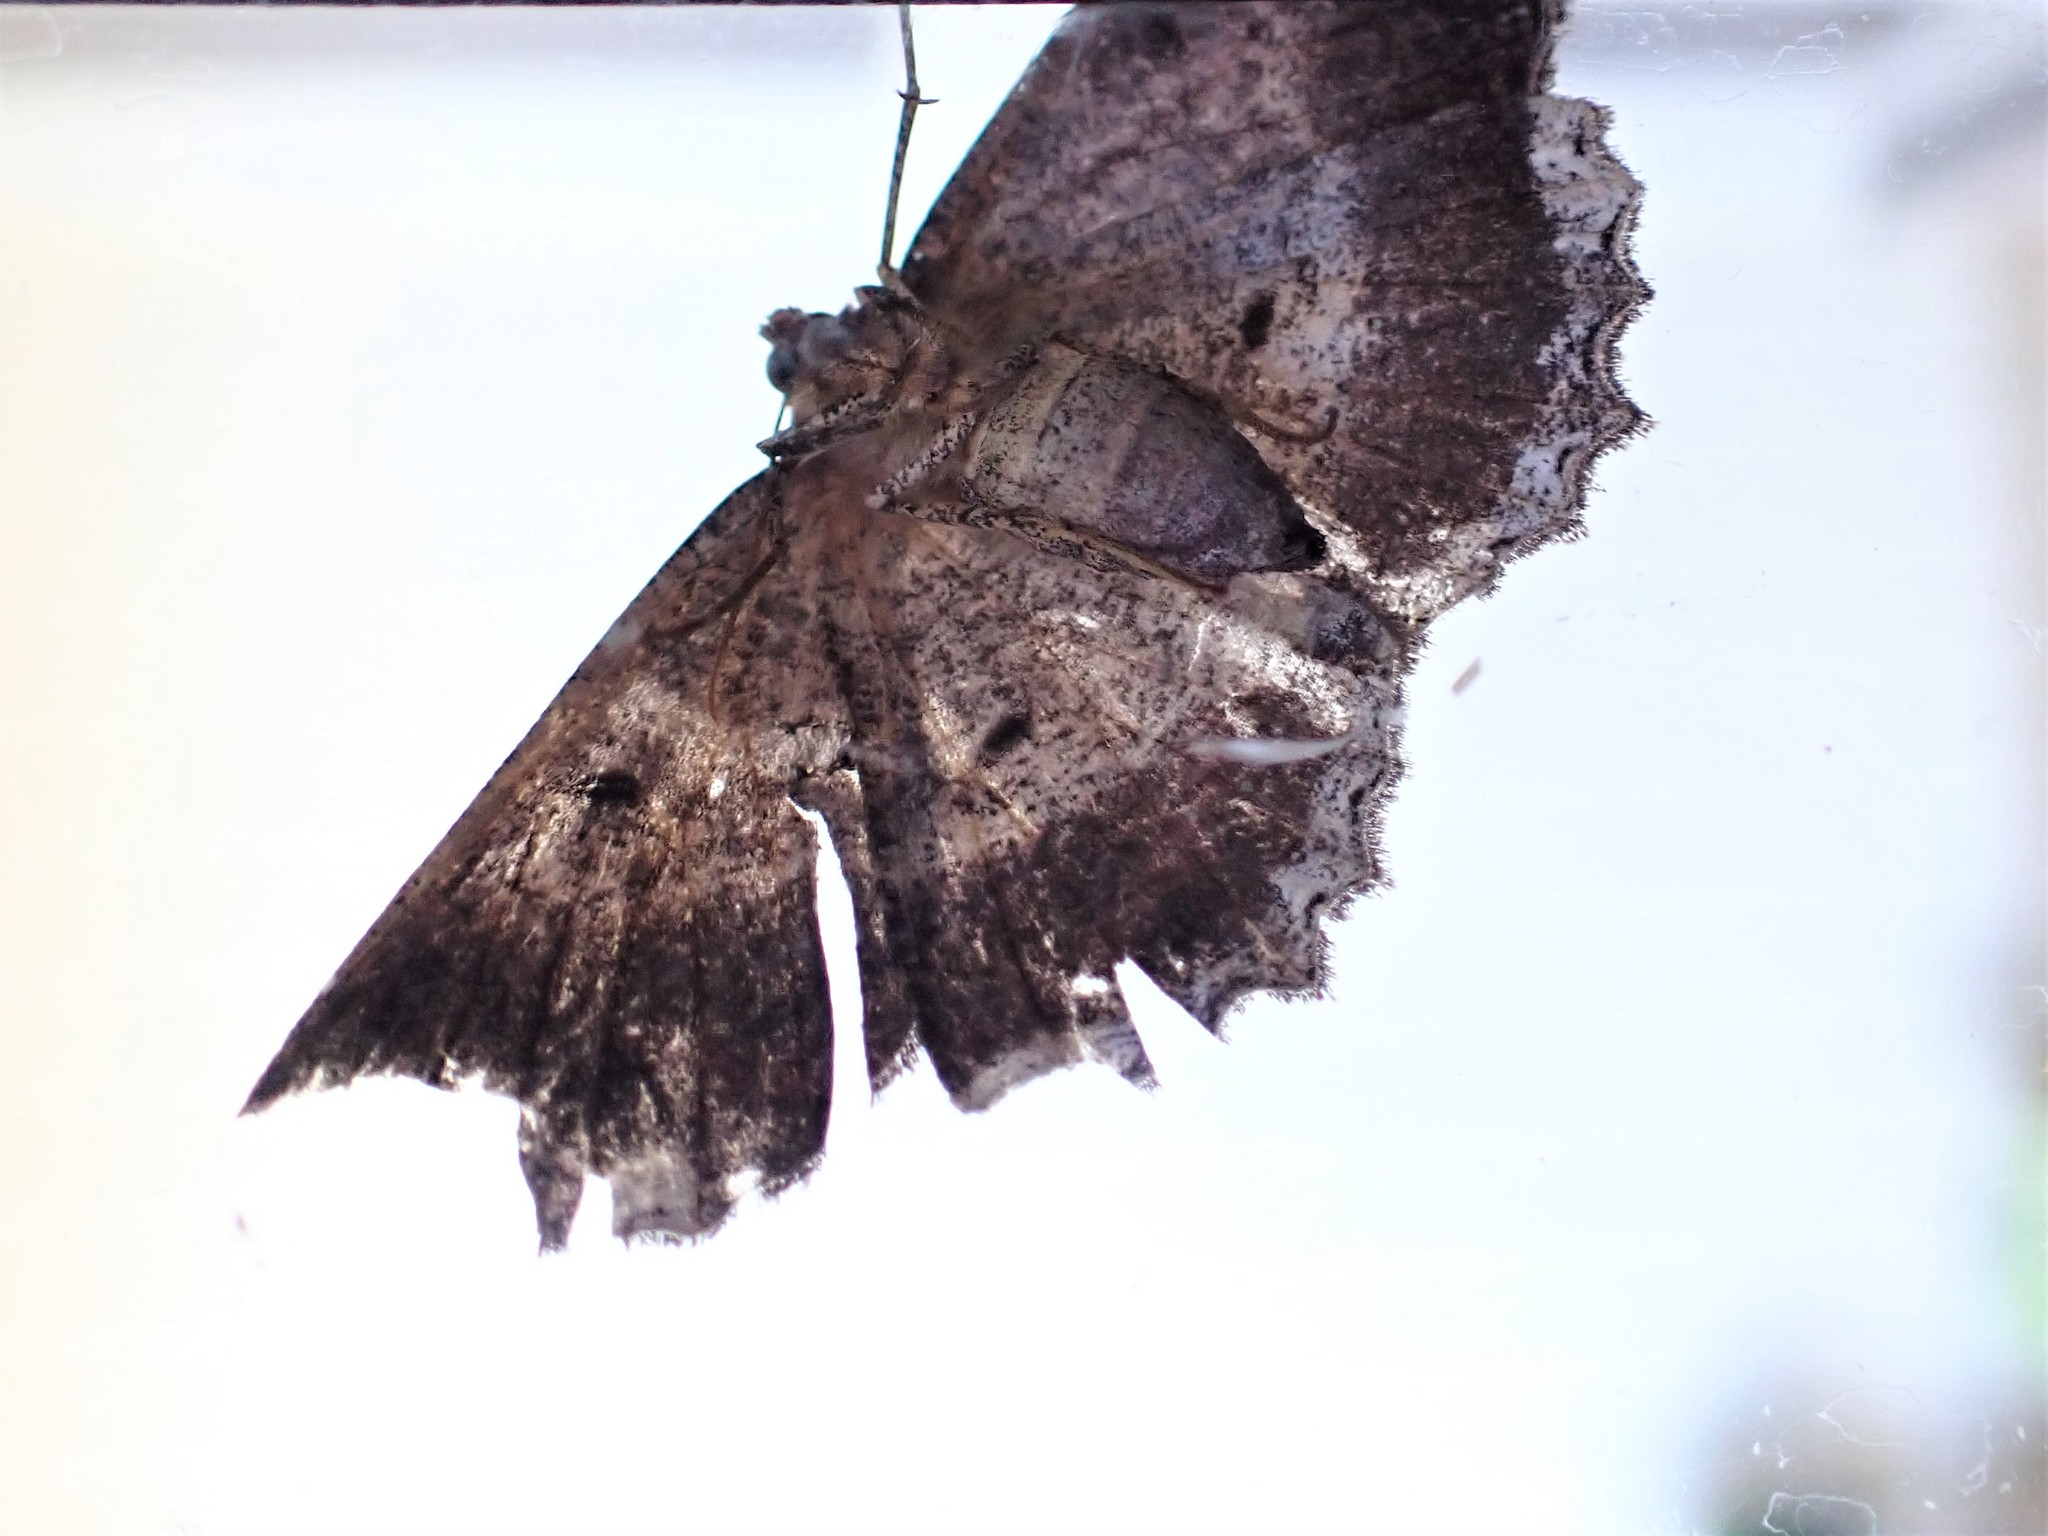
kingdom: Animalia
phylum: Arthropoda
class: Insecta
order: Lepidoptera
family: Geometridae
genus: Gellonia
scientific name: Gellonia dejectaria
